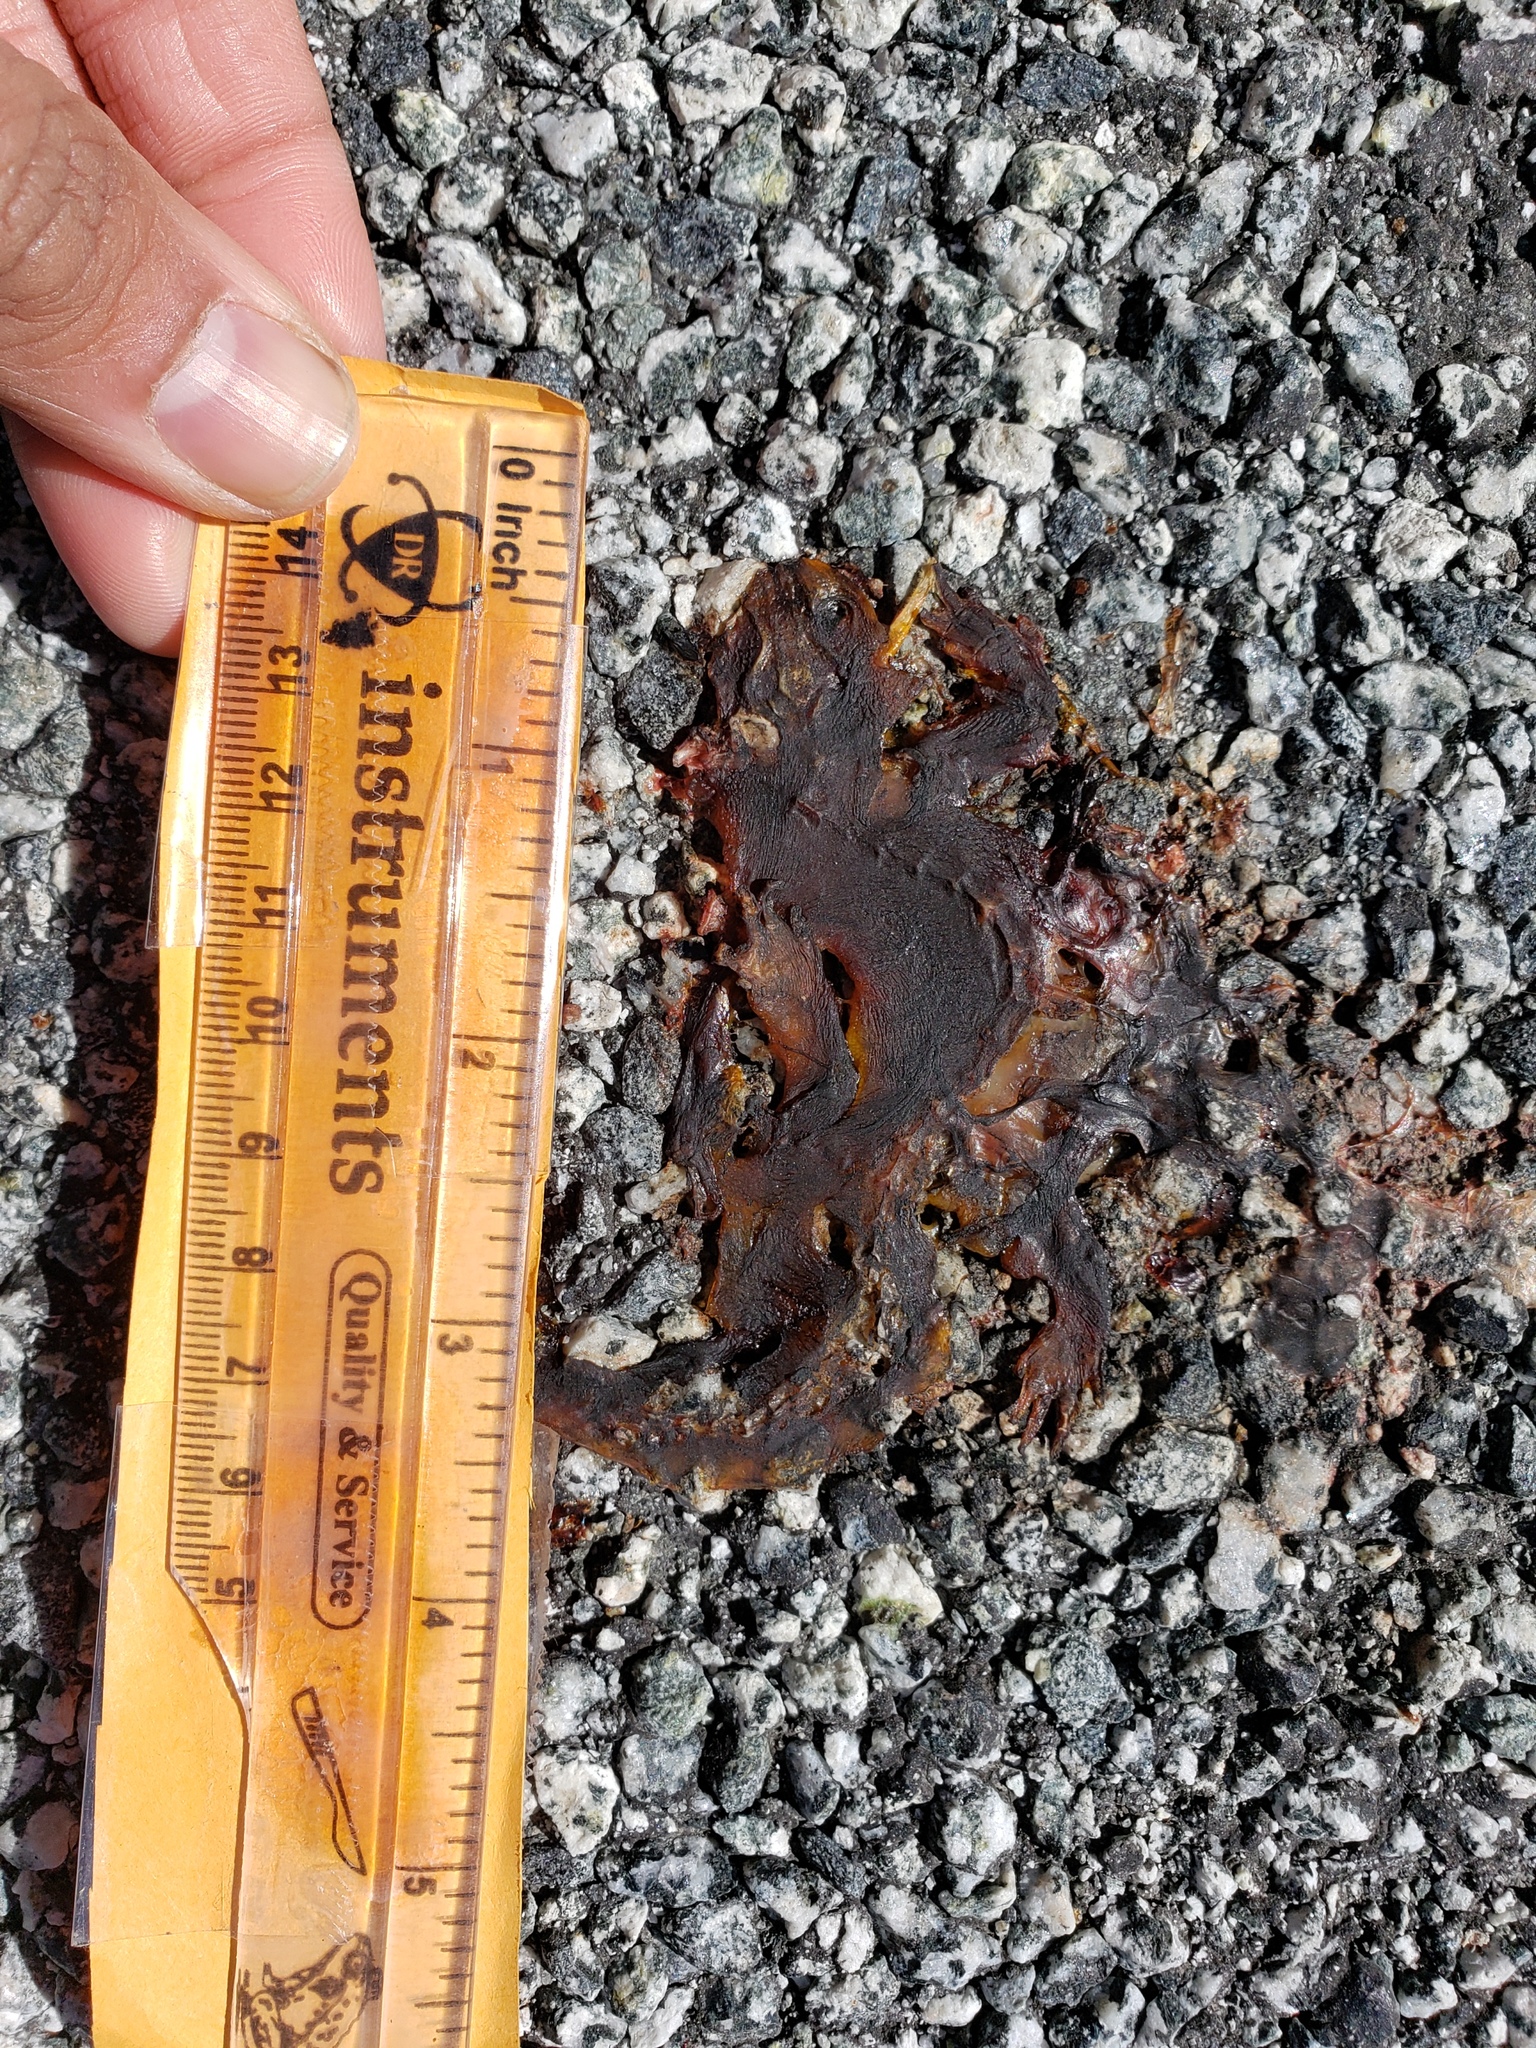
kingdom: Animalia
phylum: Chordata
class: Amphibia
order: Caudata
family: Salamandridae
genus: Taricha
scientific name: Taricha
